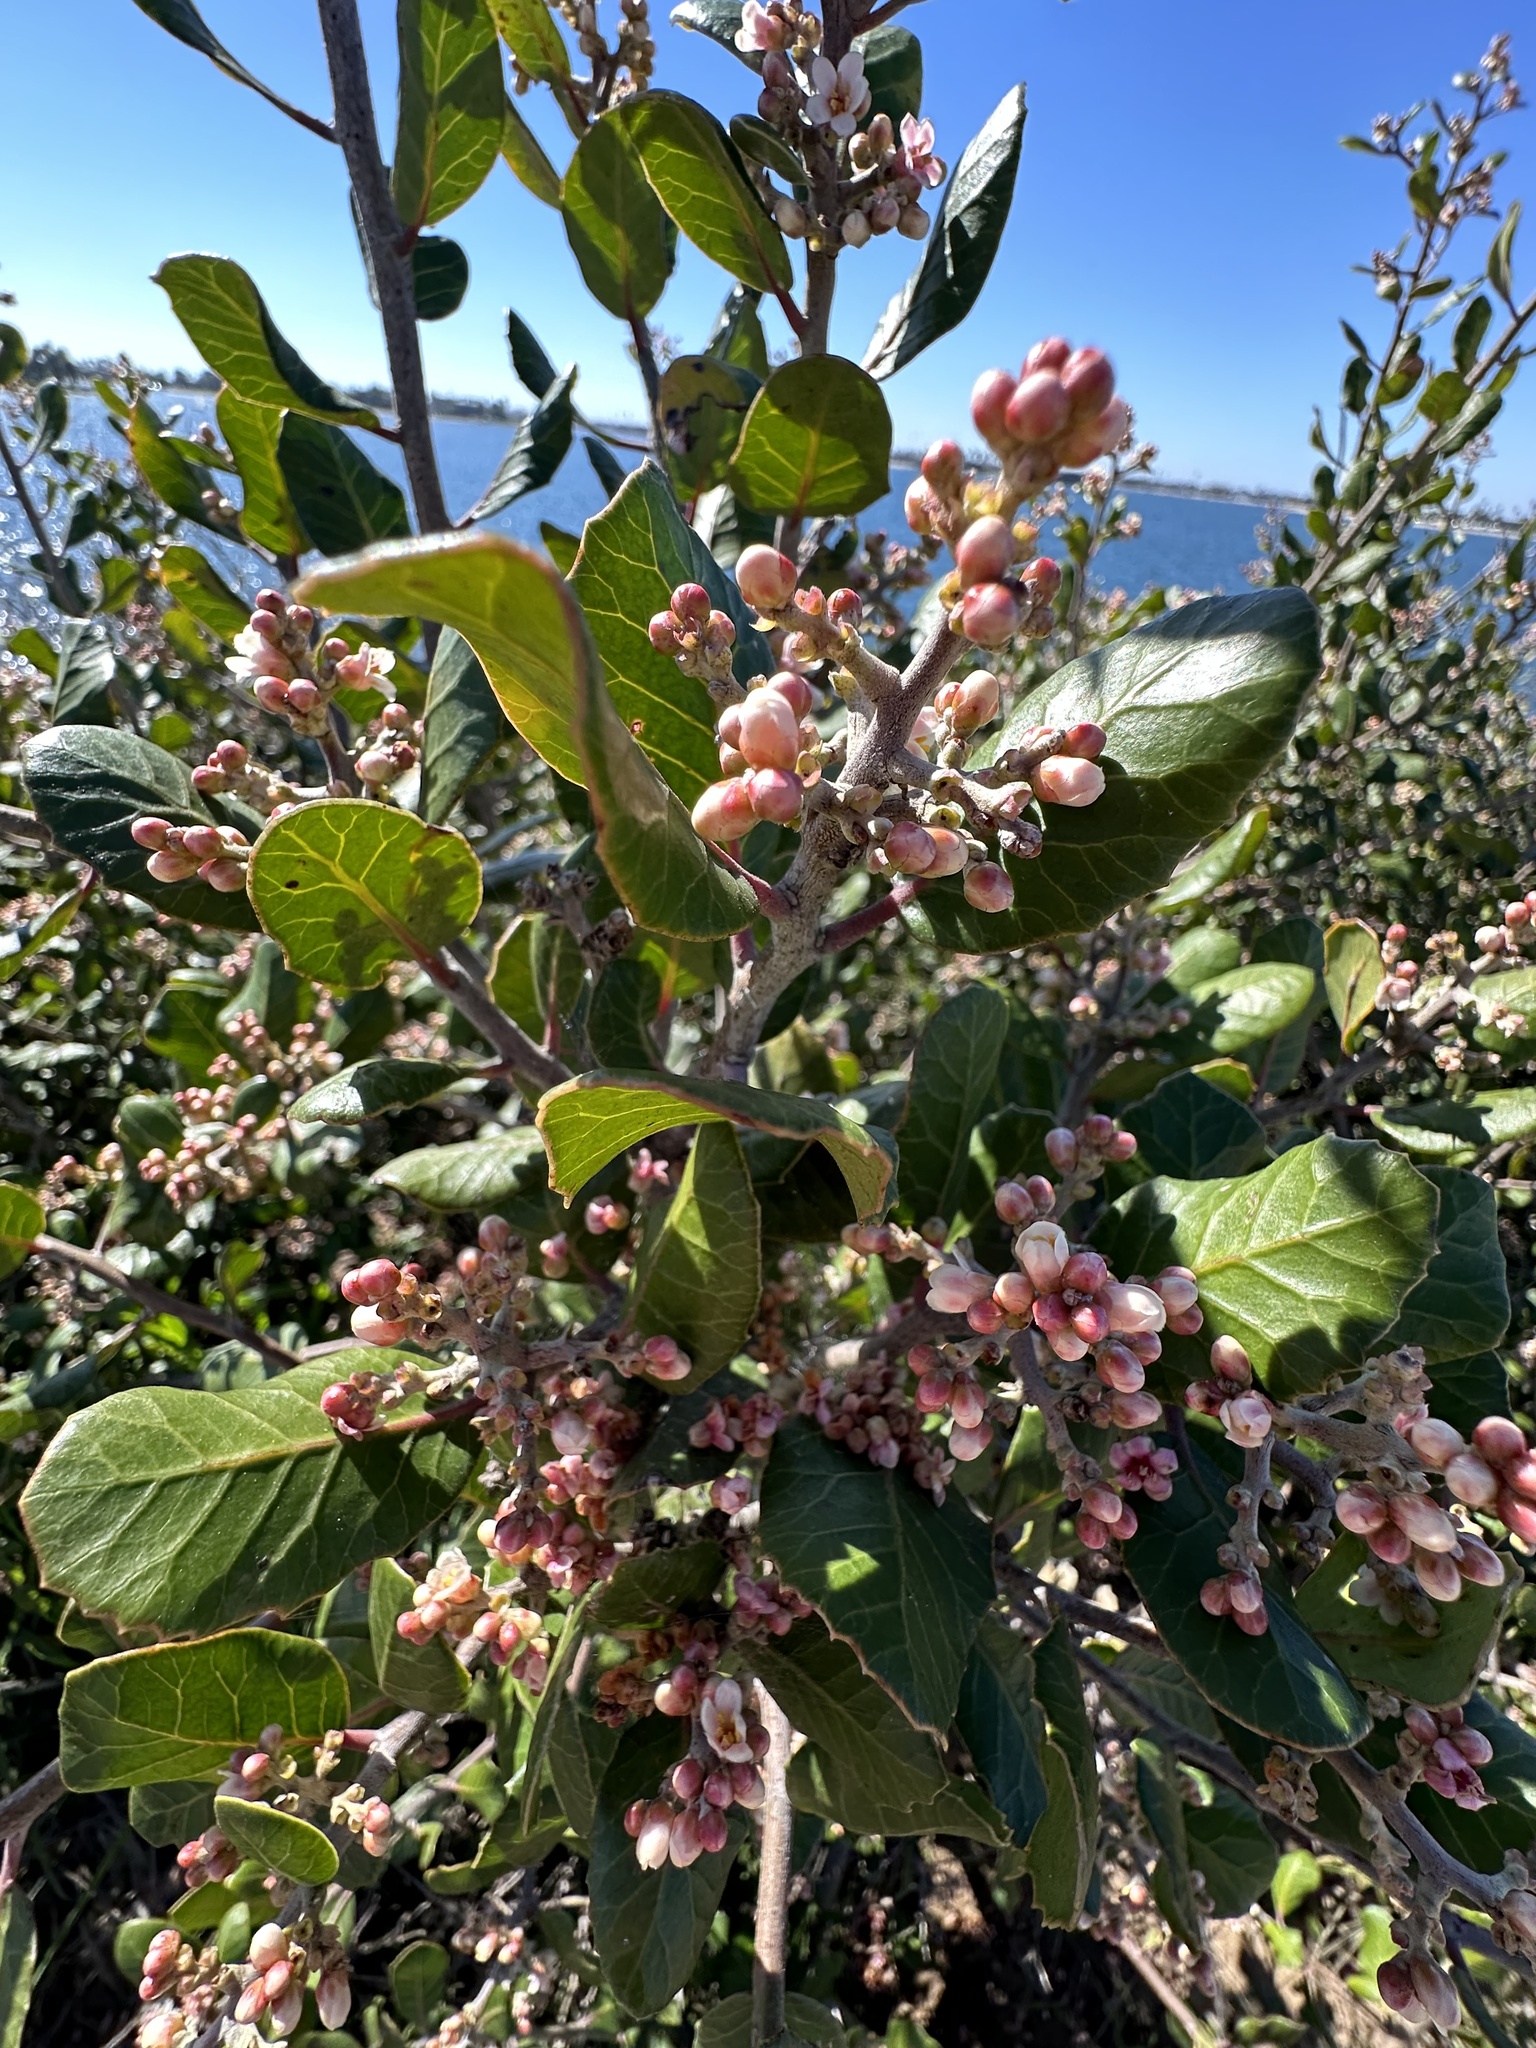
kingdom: Plantae
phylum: Tracheophyta
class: Magnoliopsida
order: Sapindales
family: Anacardiaceae
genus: Rhus
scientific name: Rhus integrifolia
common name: Lemonade sumac
